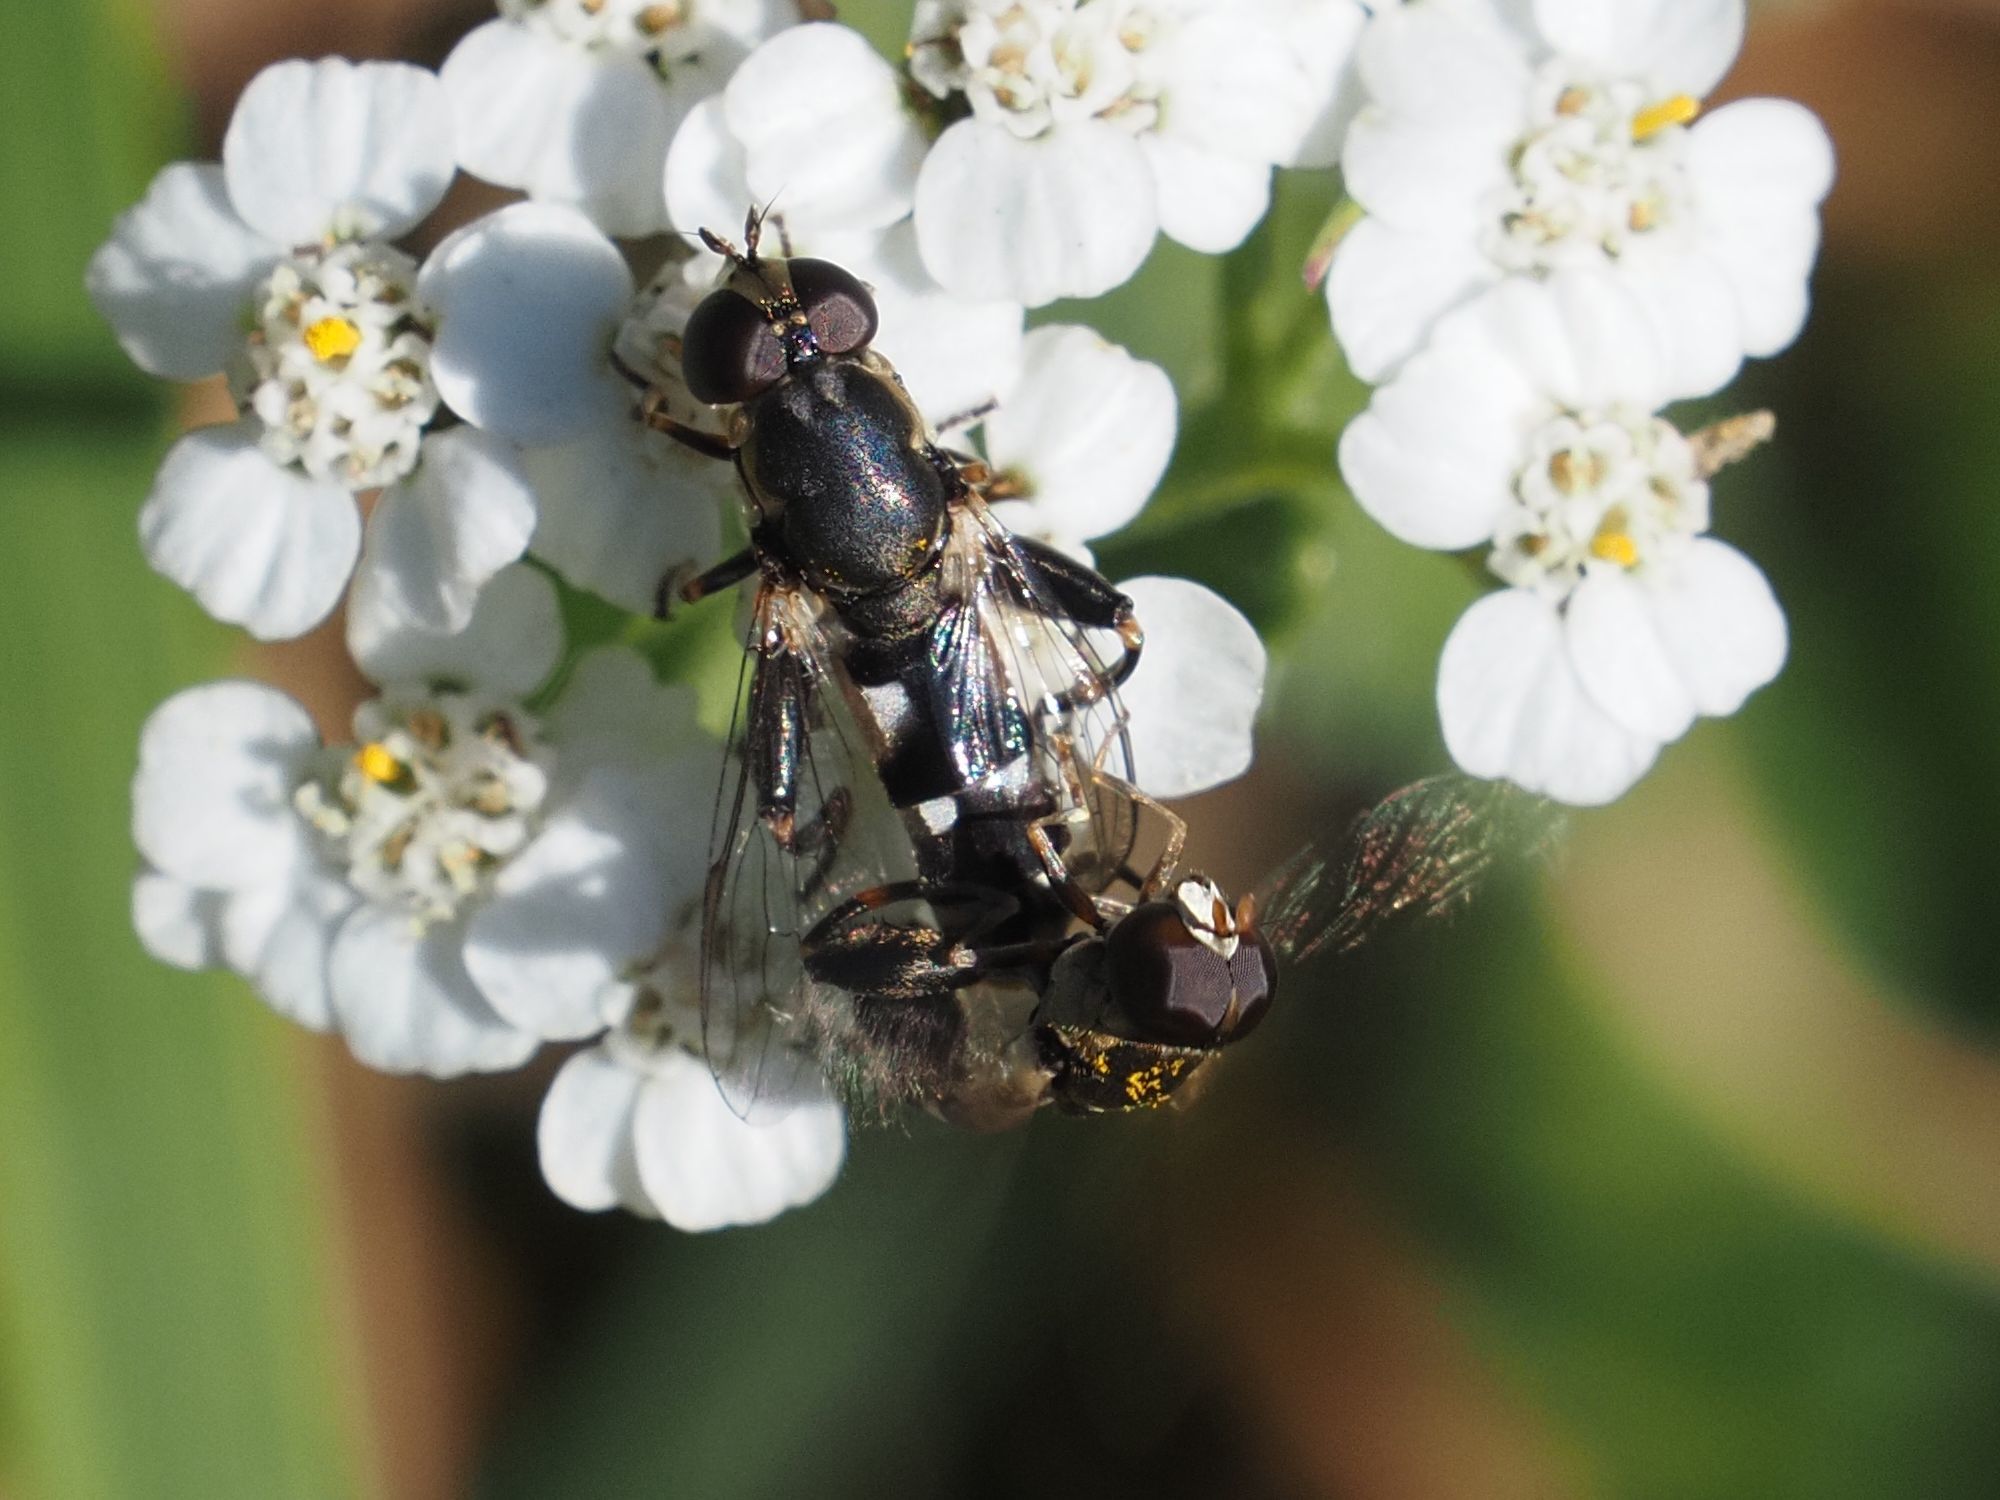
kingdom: Animalia
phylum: Arthropoda
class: Insecta
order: Diptera
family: Syrphidae
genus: Syritta
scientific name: Syritta pipiens
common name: Hover fly
